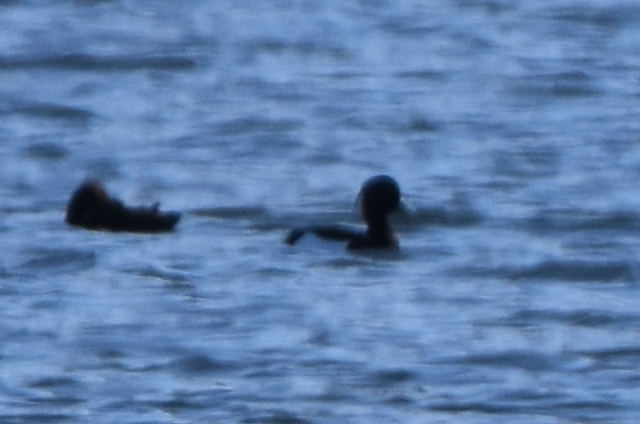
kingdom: Animalia
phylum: Chordata
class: Aves
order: Anseriformes
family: Anatidae
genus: Aythya
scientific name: Aythya fuligula
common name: Tufted duck
